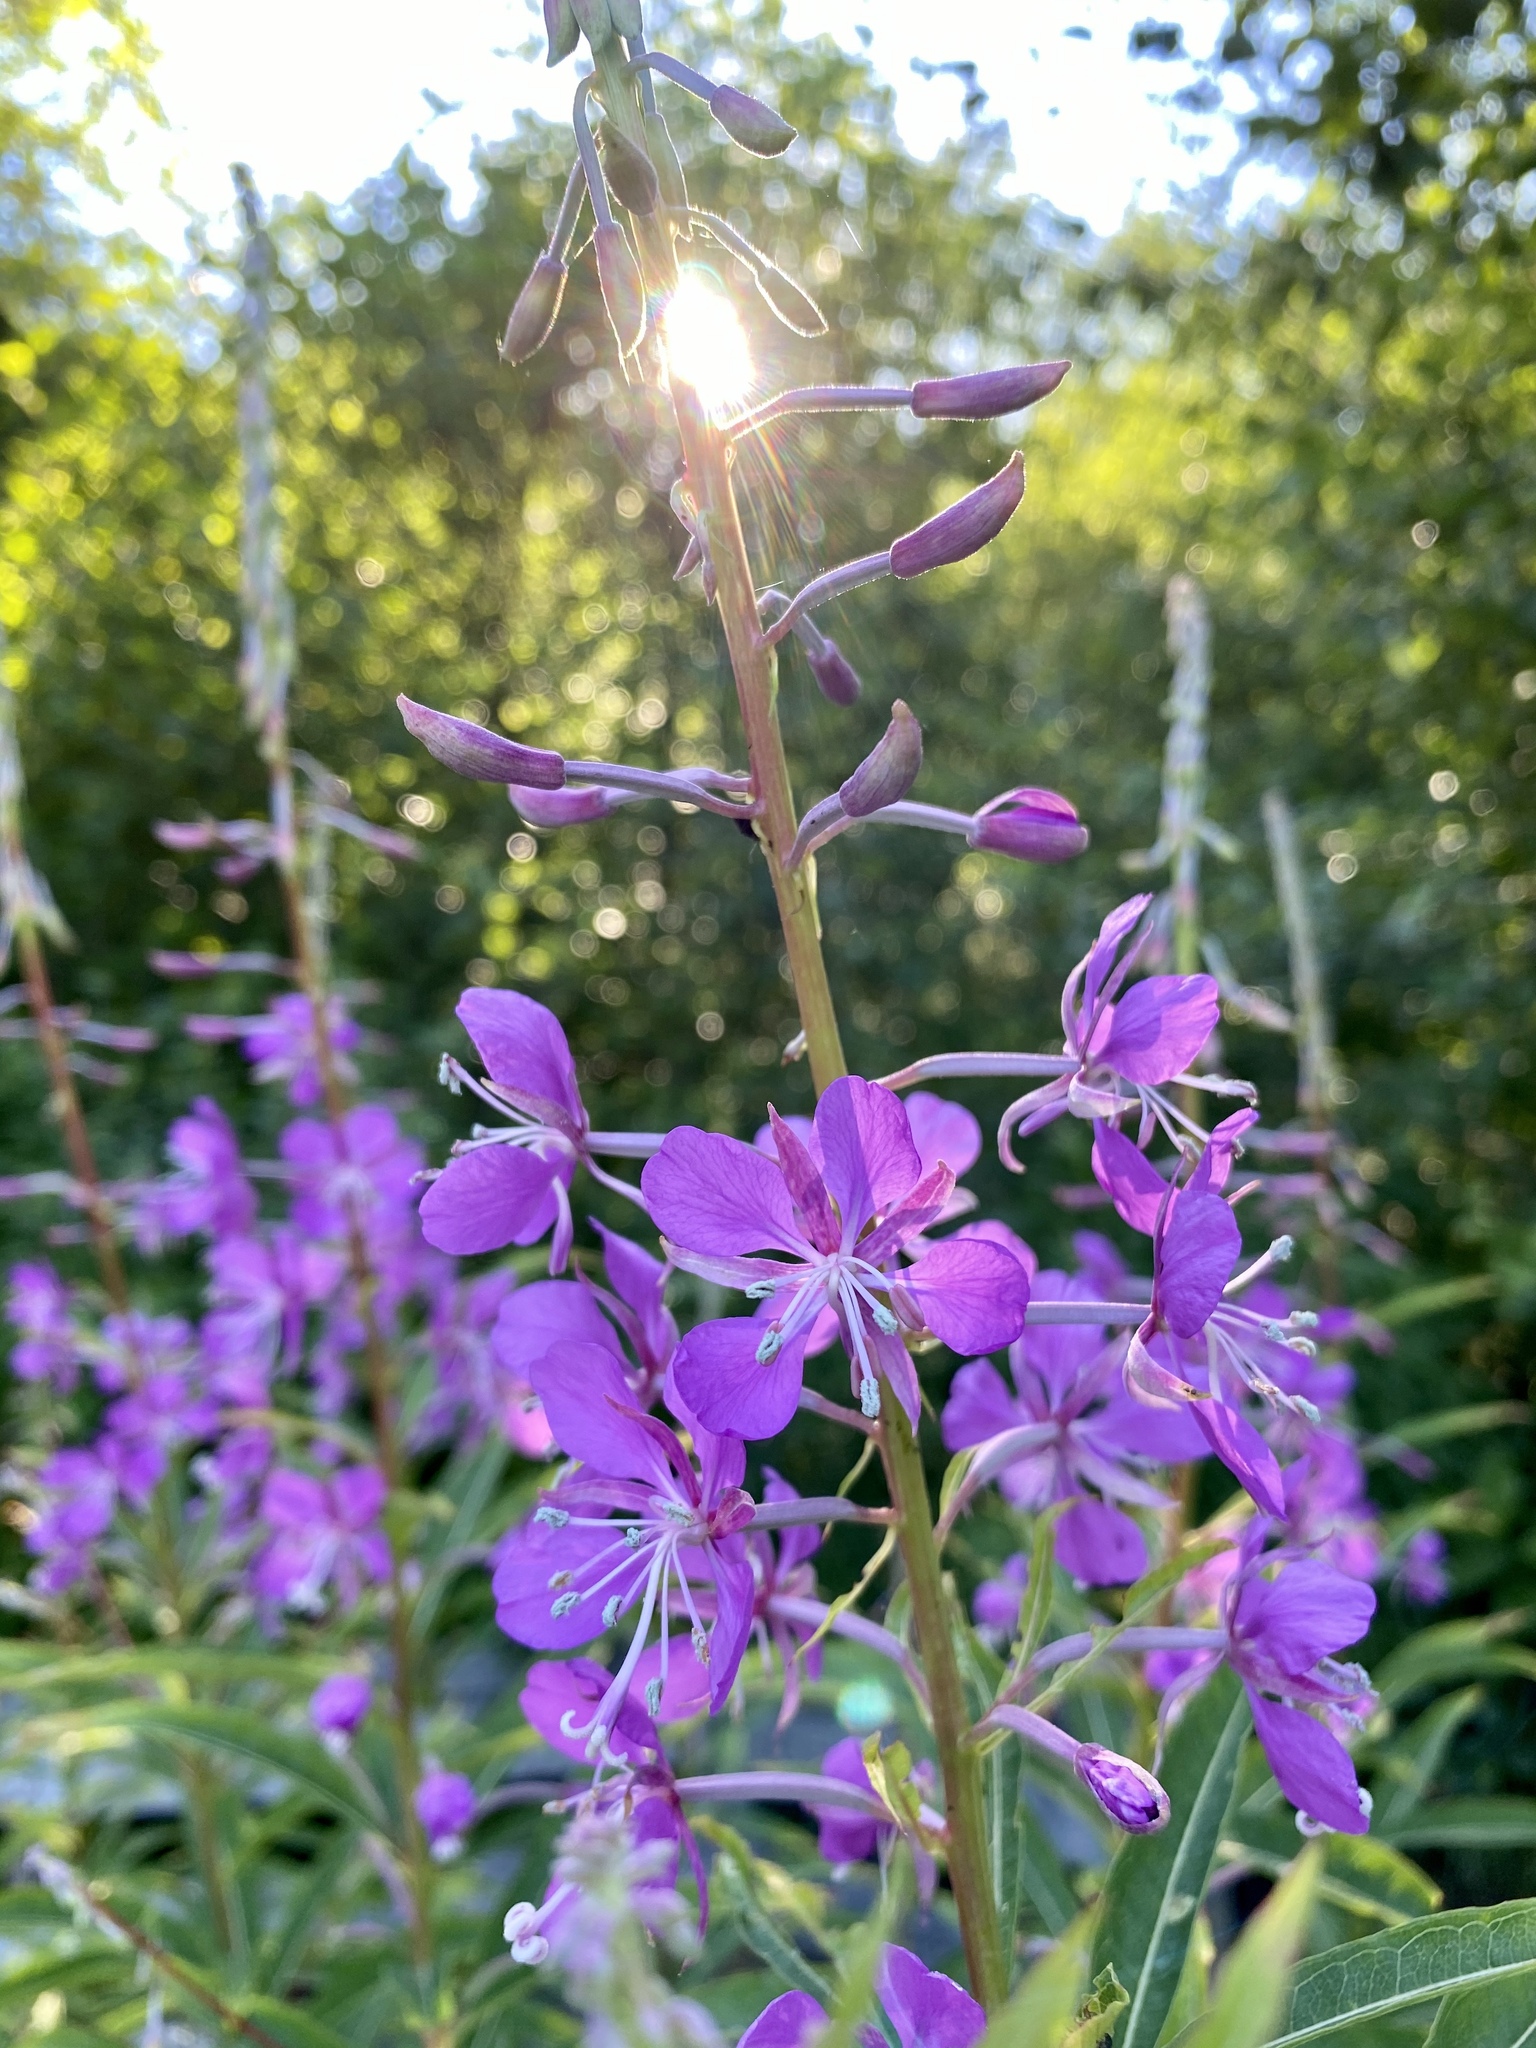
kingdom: Plantae
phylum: Tracheophyta
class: Magnoliopsida
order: Myrtales
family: Onagraceae
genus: Chamaenerion
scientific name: Chamaenerion angustifolium
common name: Fireweed
